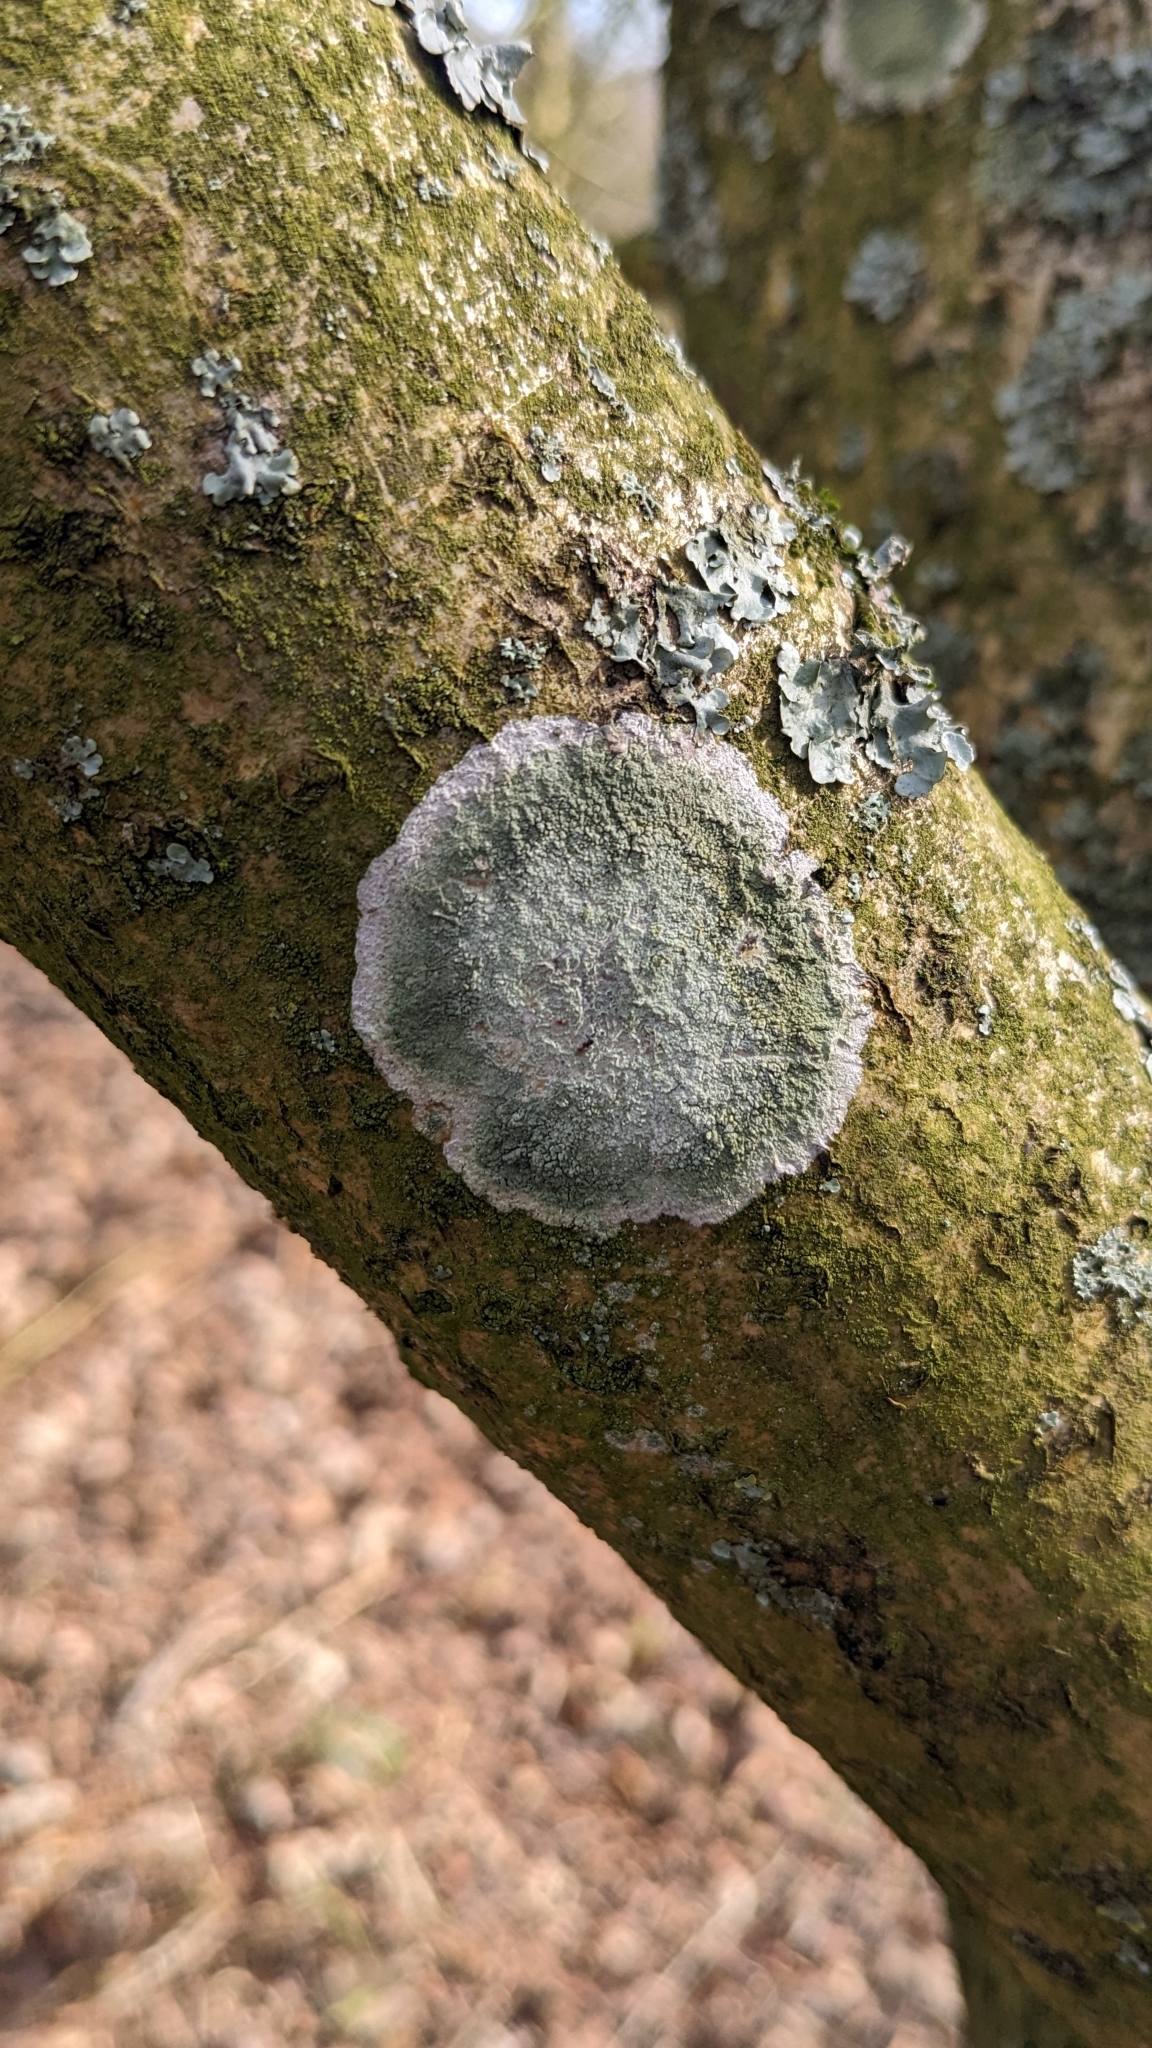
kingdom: Fungi
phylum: Ascomycota
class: Lecanoromycetes
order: Ostropales
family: Phlyctidaceae
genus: Phlyctis
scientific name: Phlyctis argena
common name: Whitewash lichen
